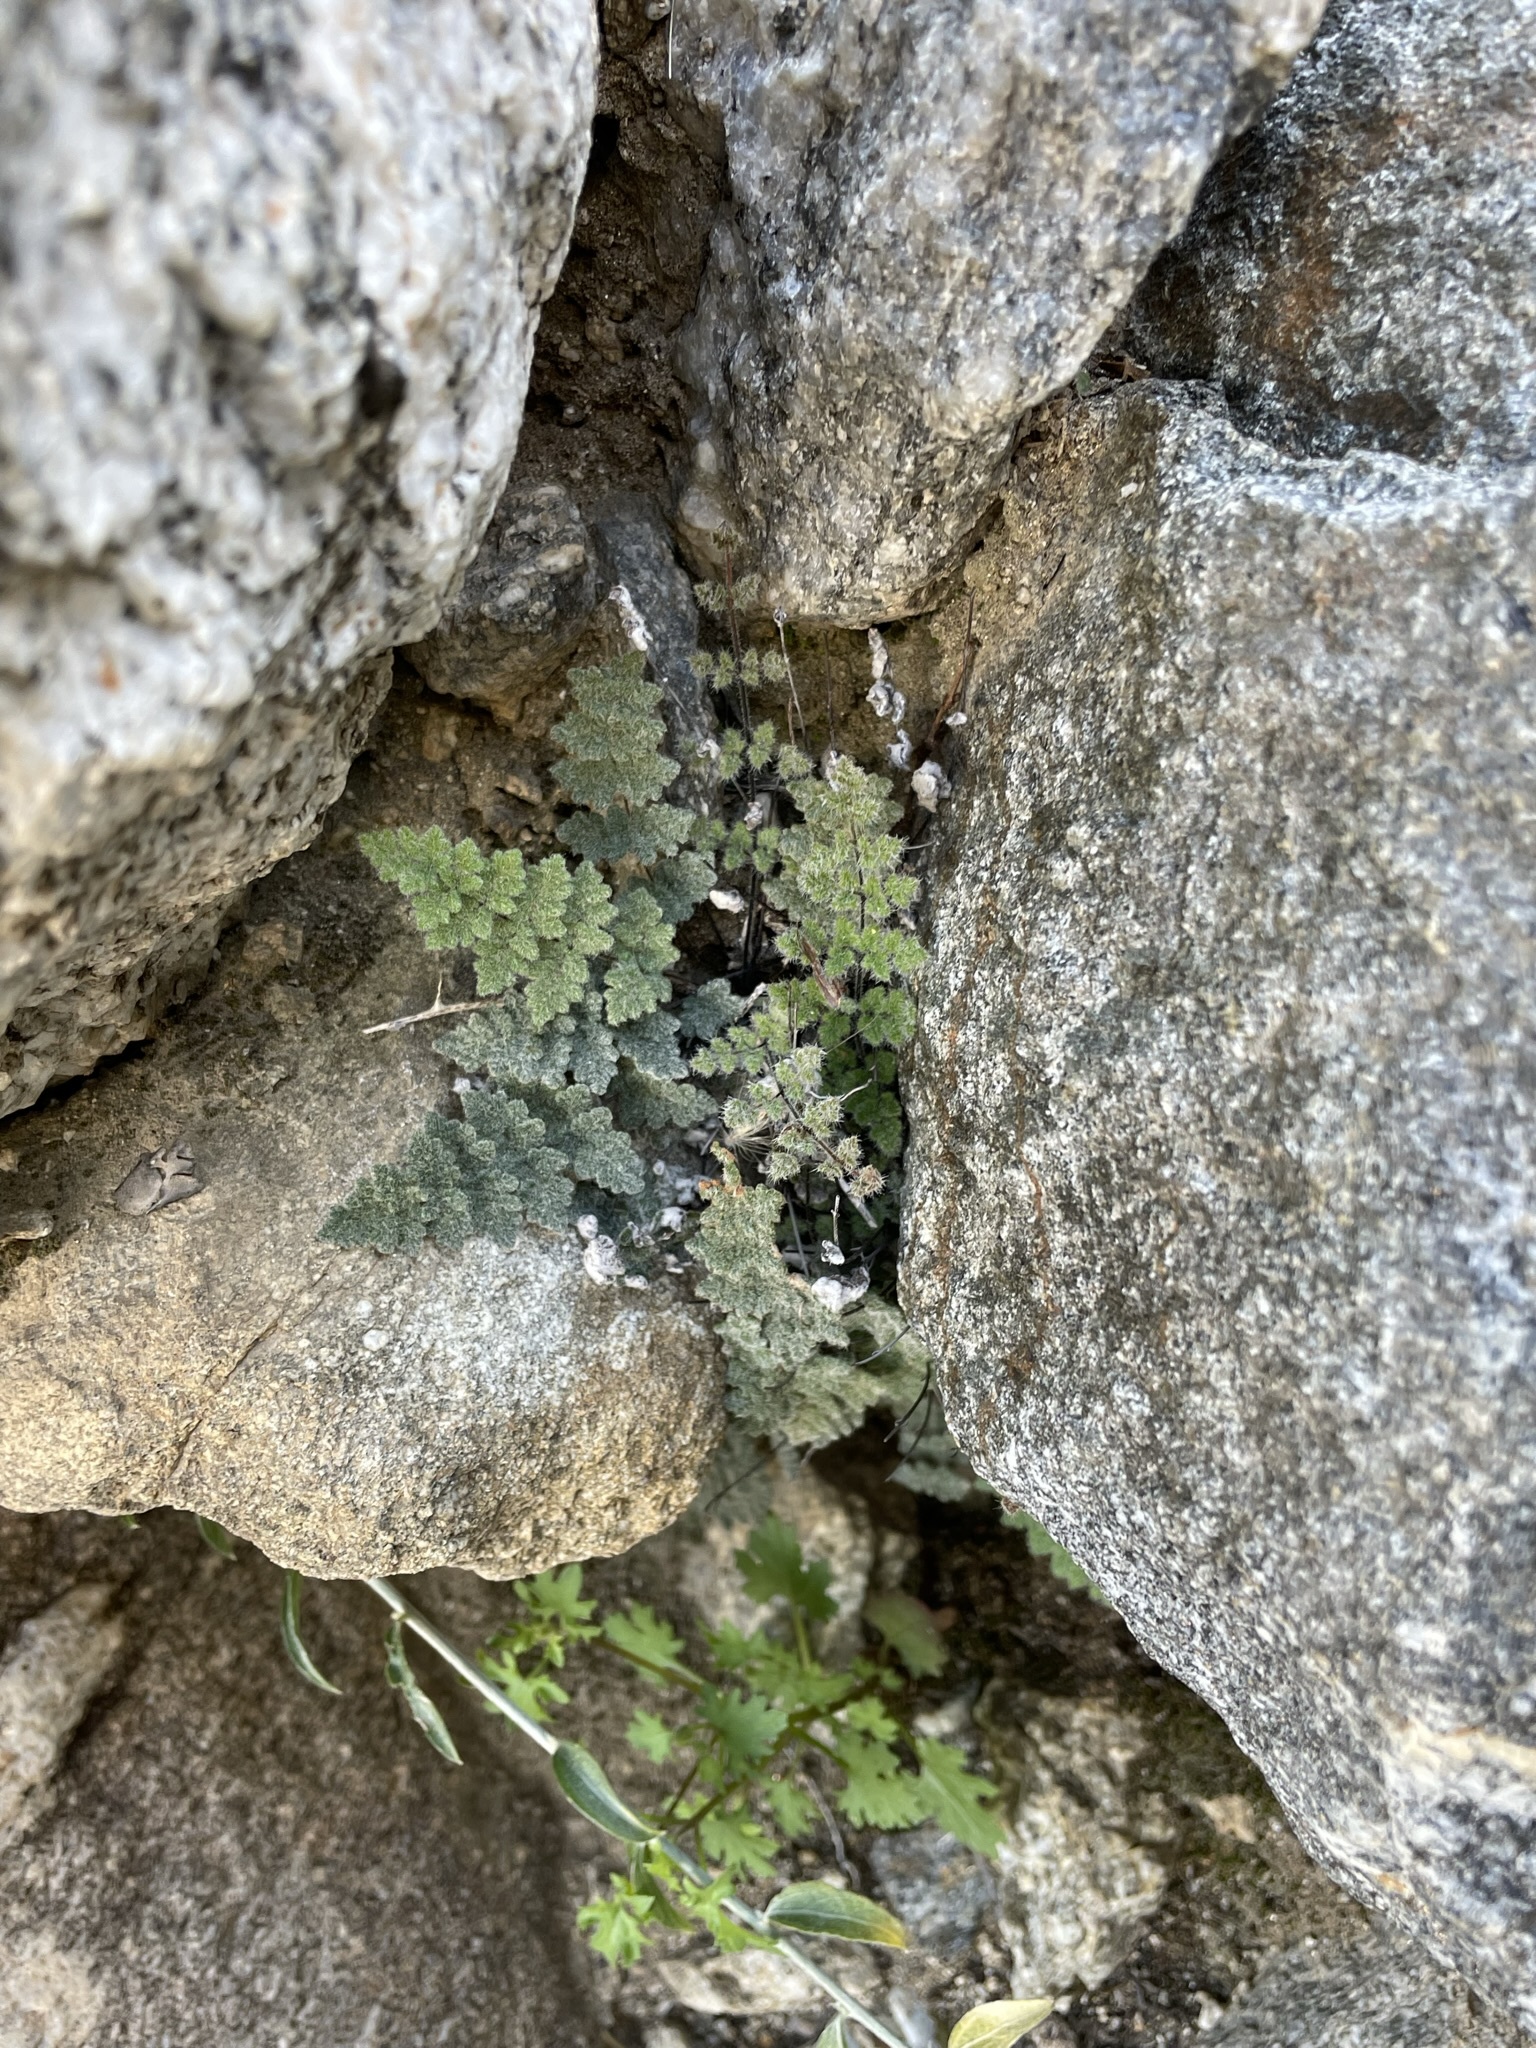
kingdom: Plantae
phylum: Tracheophyta
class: Polypodiopsida
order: Polypodiales
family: Pteridaceae
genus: Myriopteris
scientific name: Myriopteris parryi
